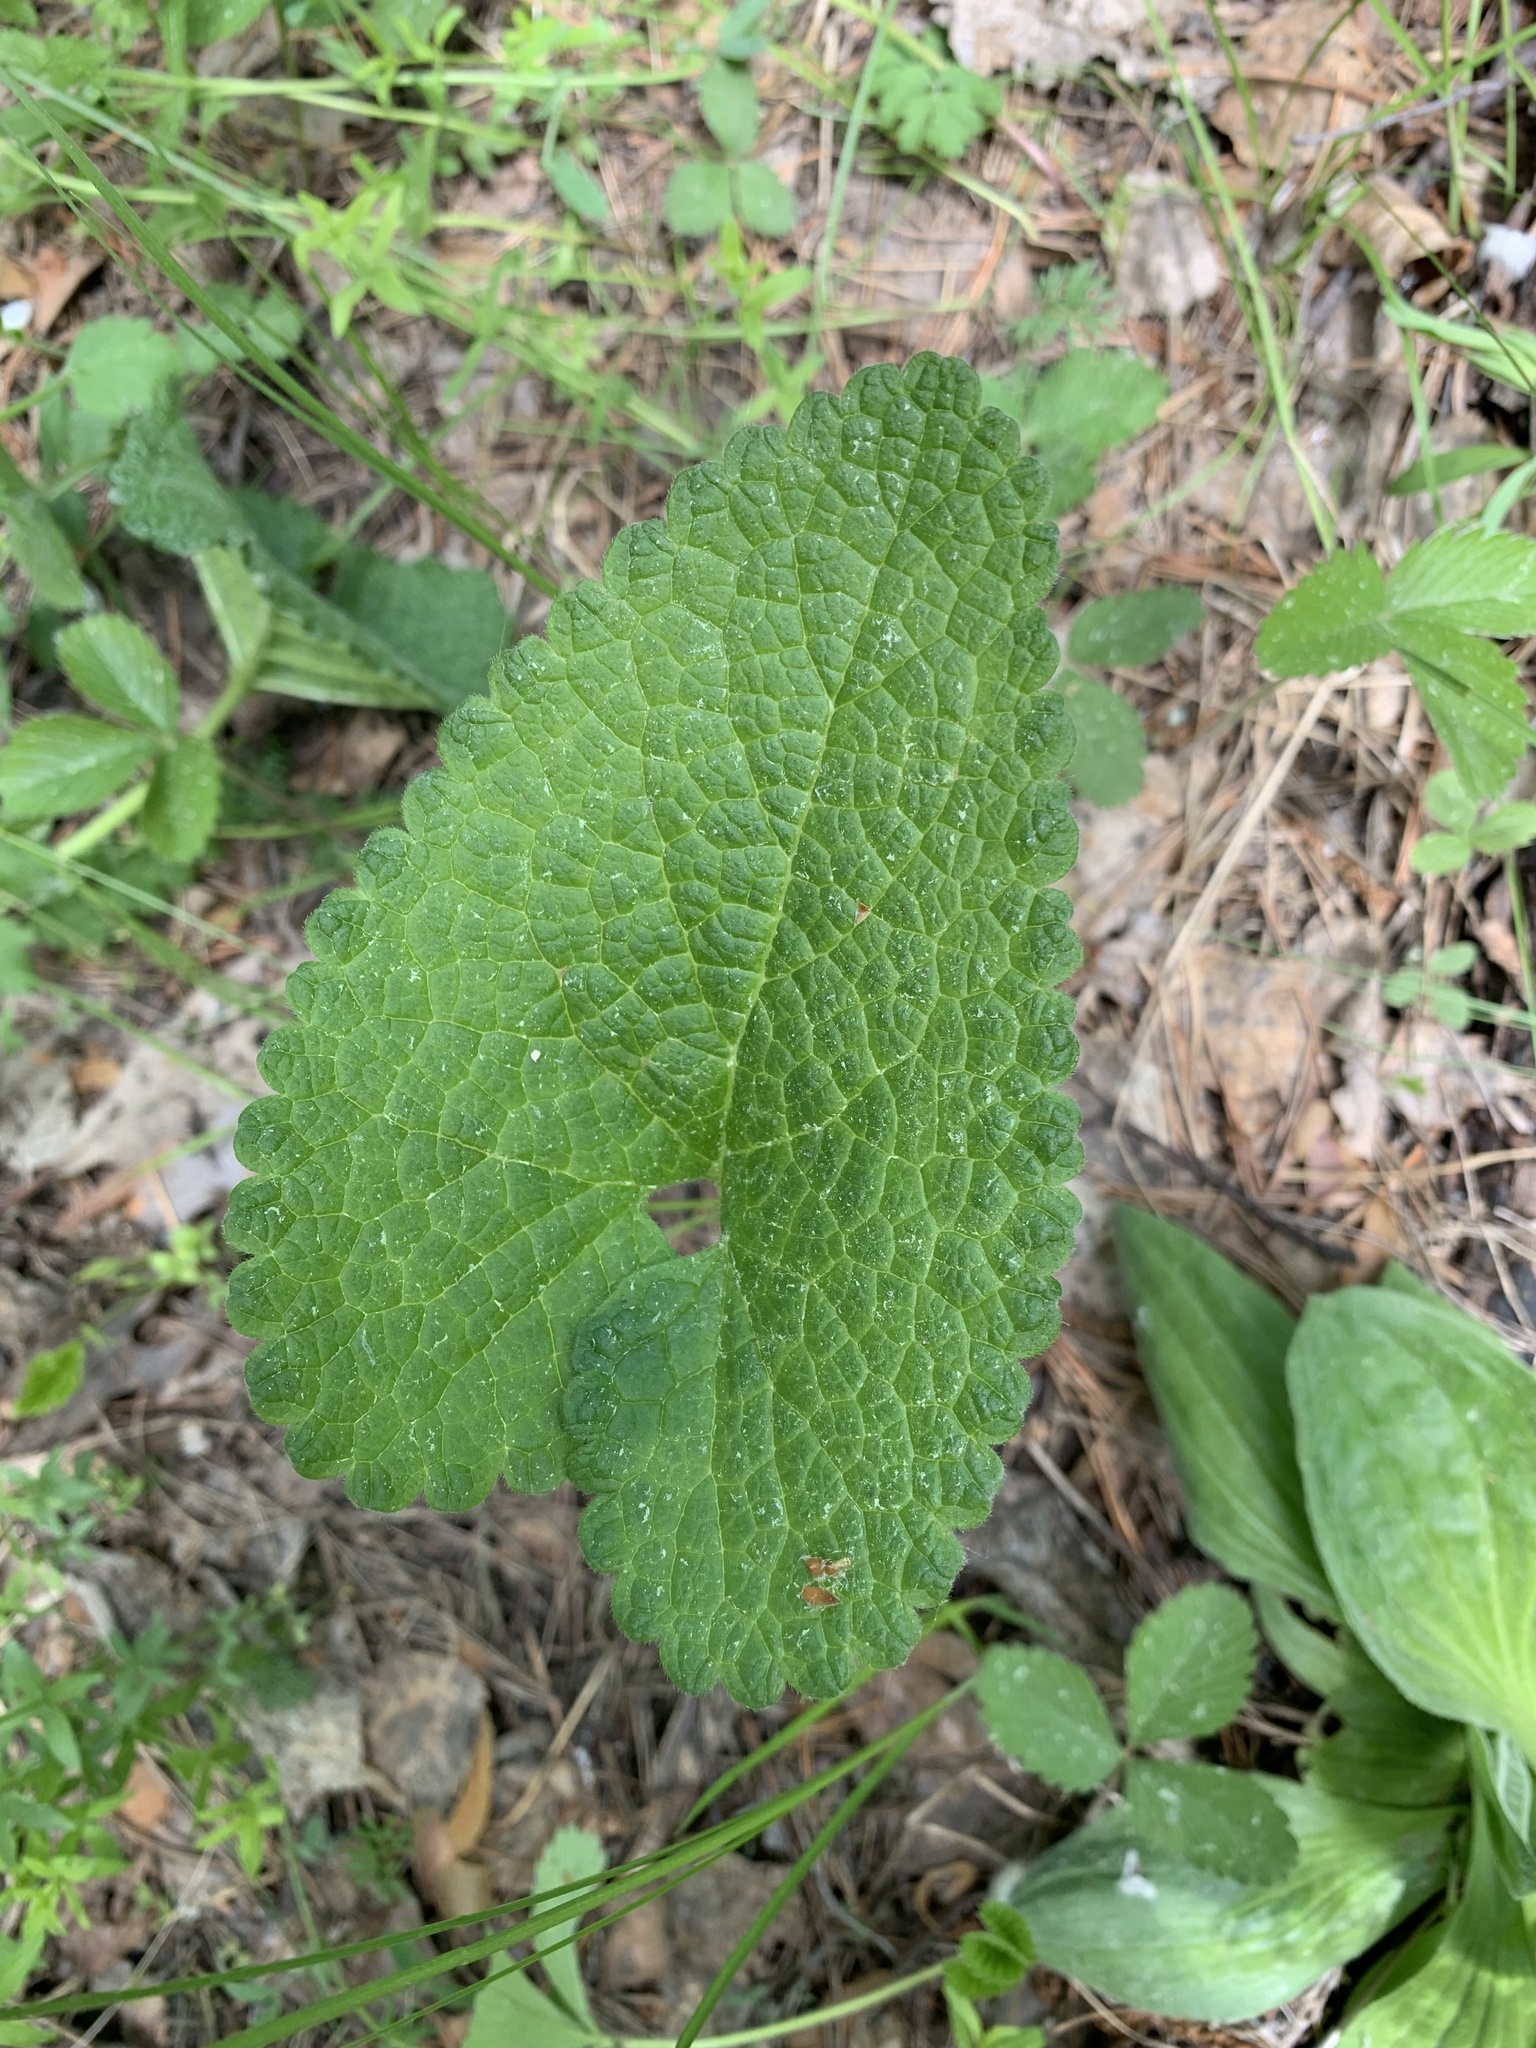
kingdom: Plantae
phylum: Tracheophyta
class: Magnoliopsida
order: Lamiales
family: Lamiaceae
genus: Phlomoides
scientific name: Phlomoides tuberosa
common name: Tuberous jerusalem sage
